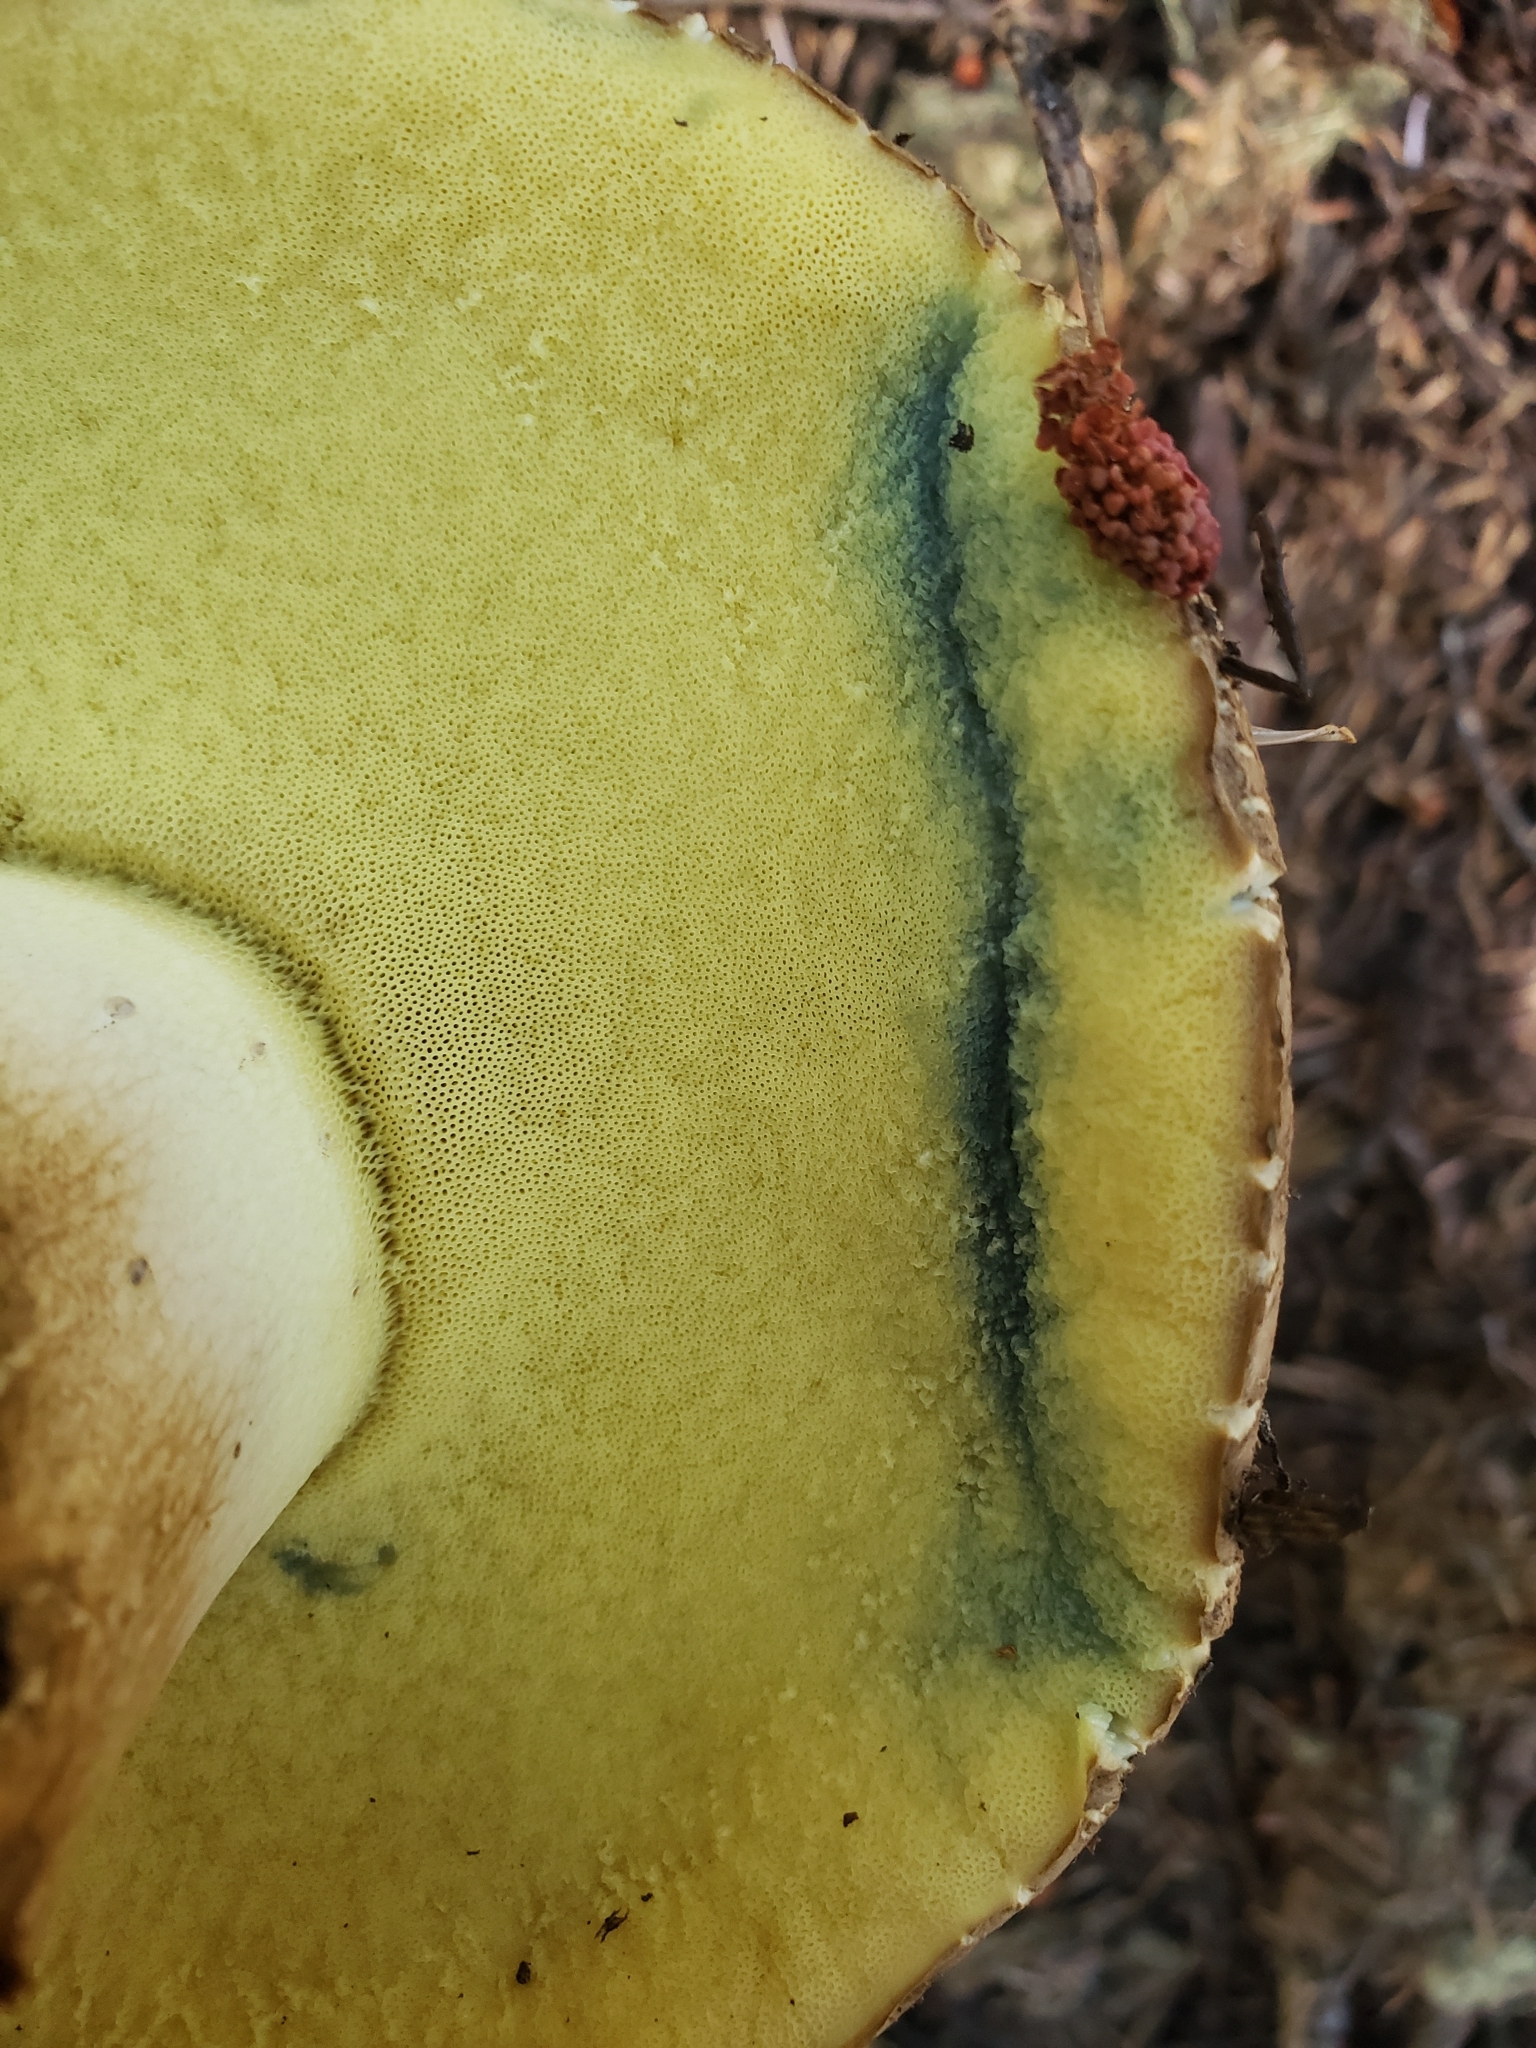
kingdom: Fungi
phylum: Basidiomycota
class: Agaricomycetes
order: Boletales
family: Boletaceae
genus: Caloboletus
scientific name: Caloboletus conifericola
